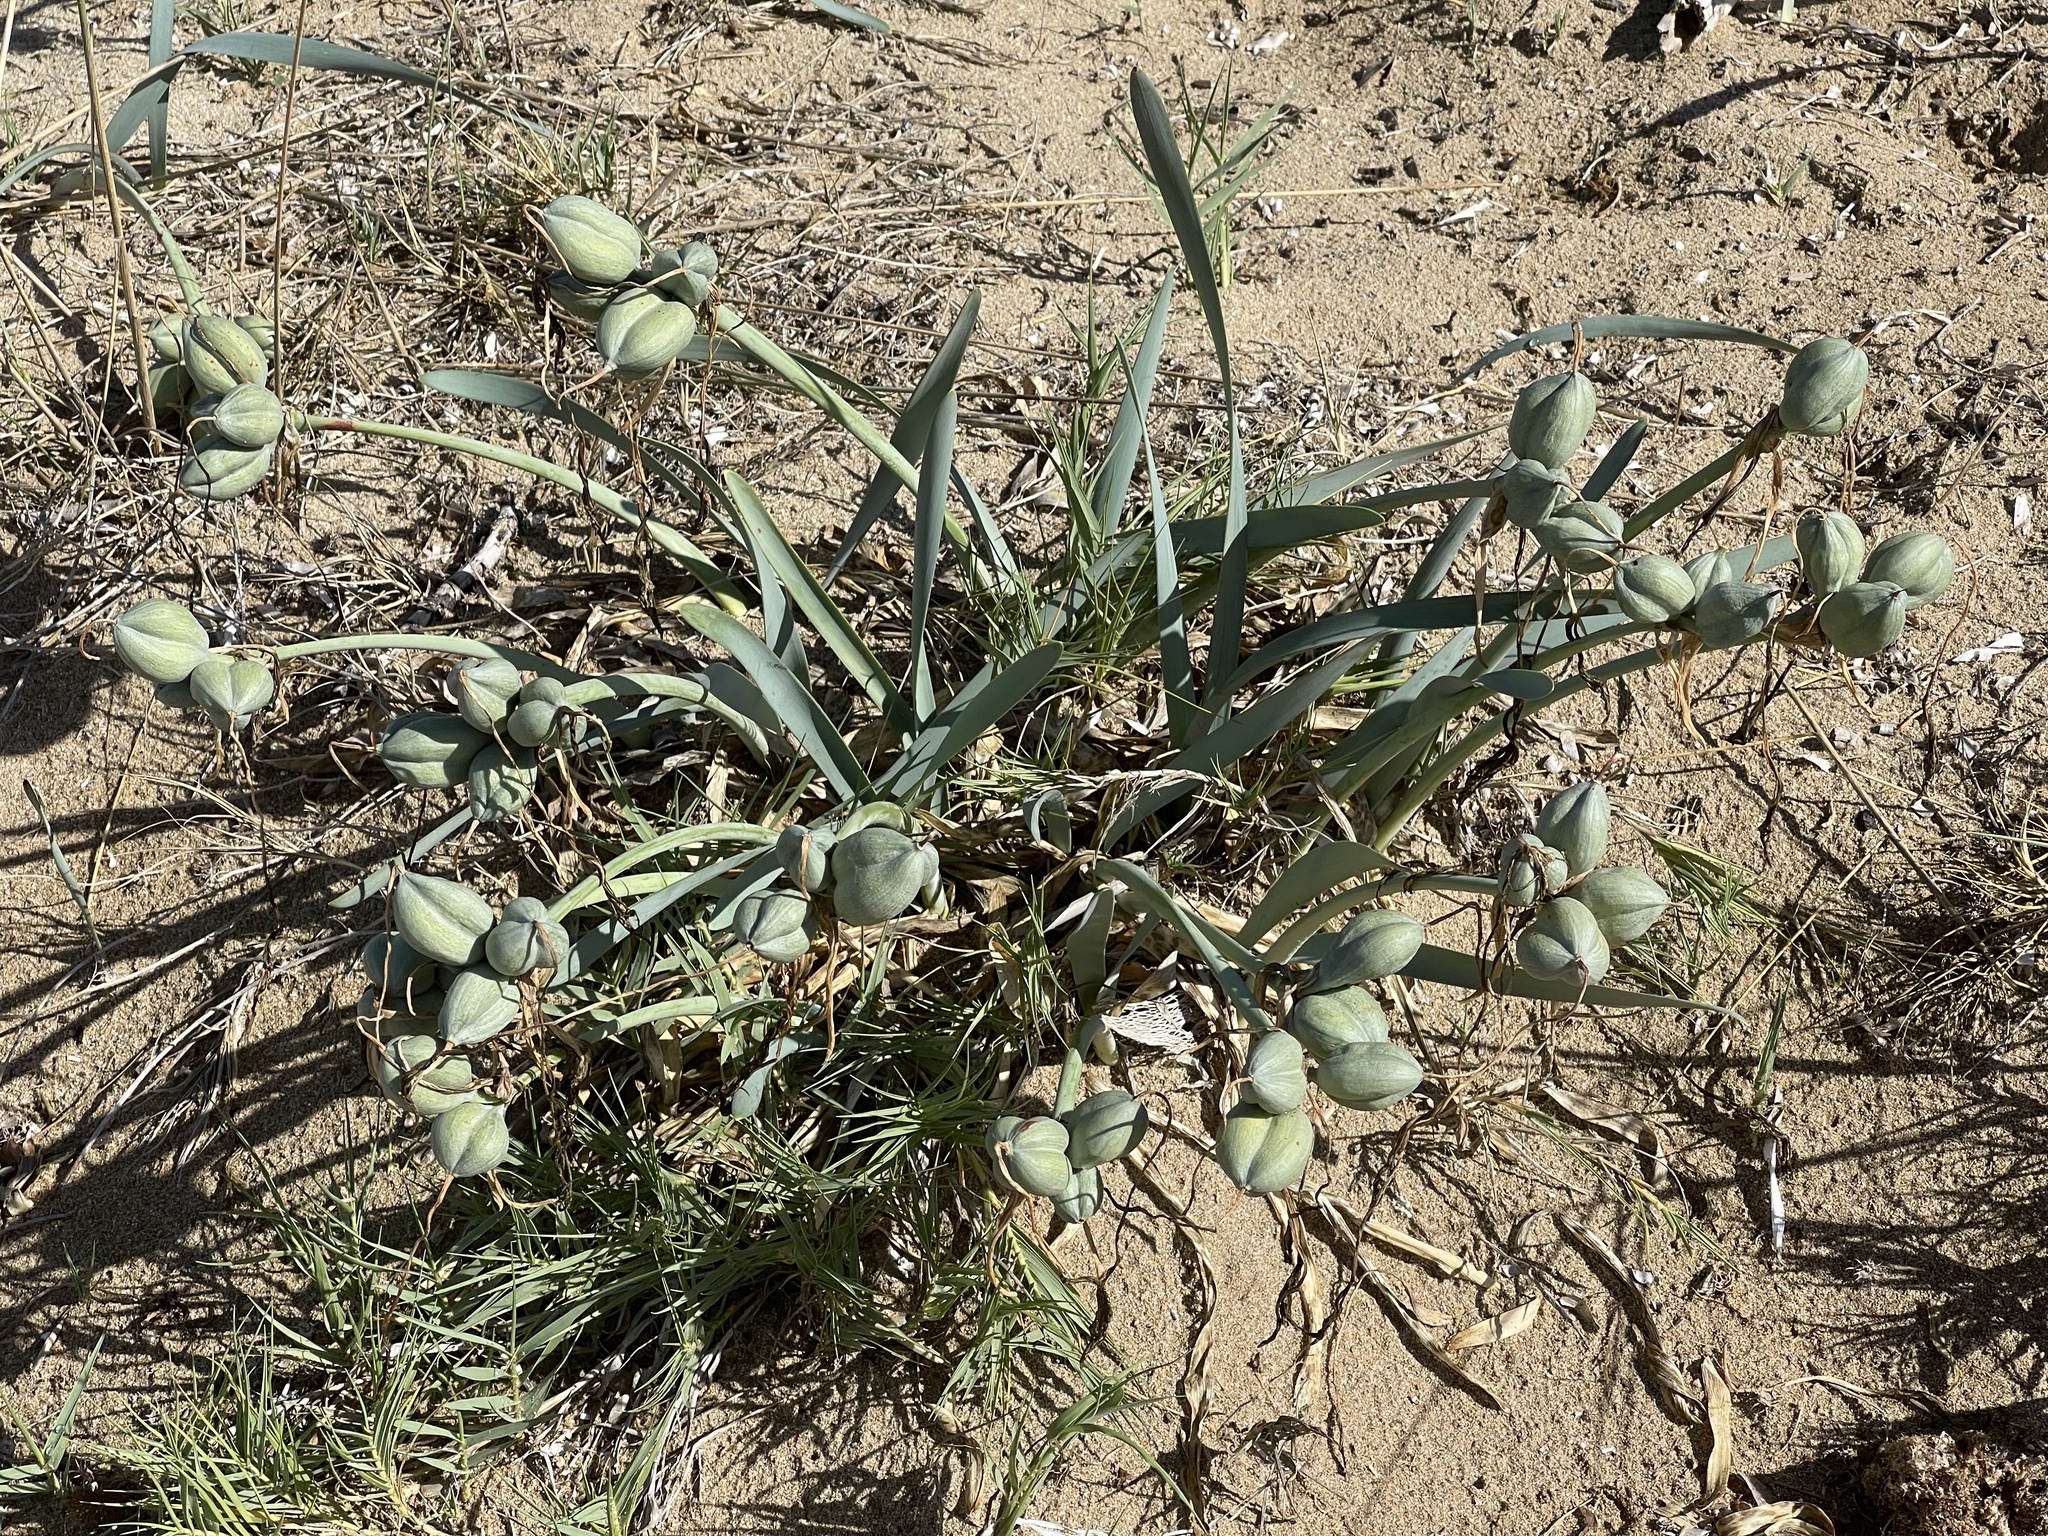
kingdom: Plantae
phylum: Tracheophyta
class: Liliopsida
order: Asparagales
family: Amaryllidaceae
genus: Pancratium
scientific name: Pancratium maritimum
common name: Sea-daffodil
